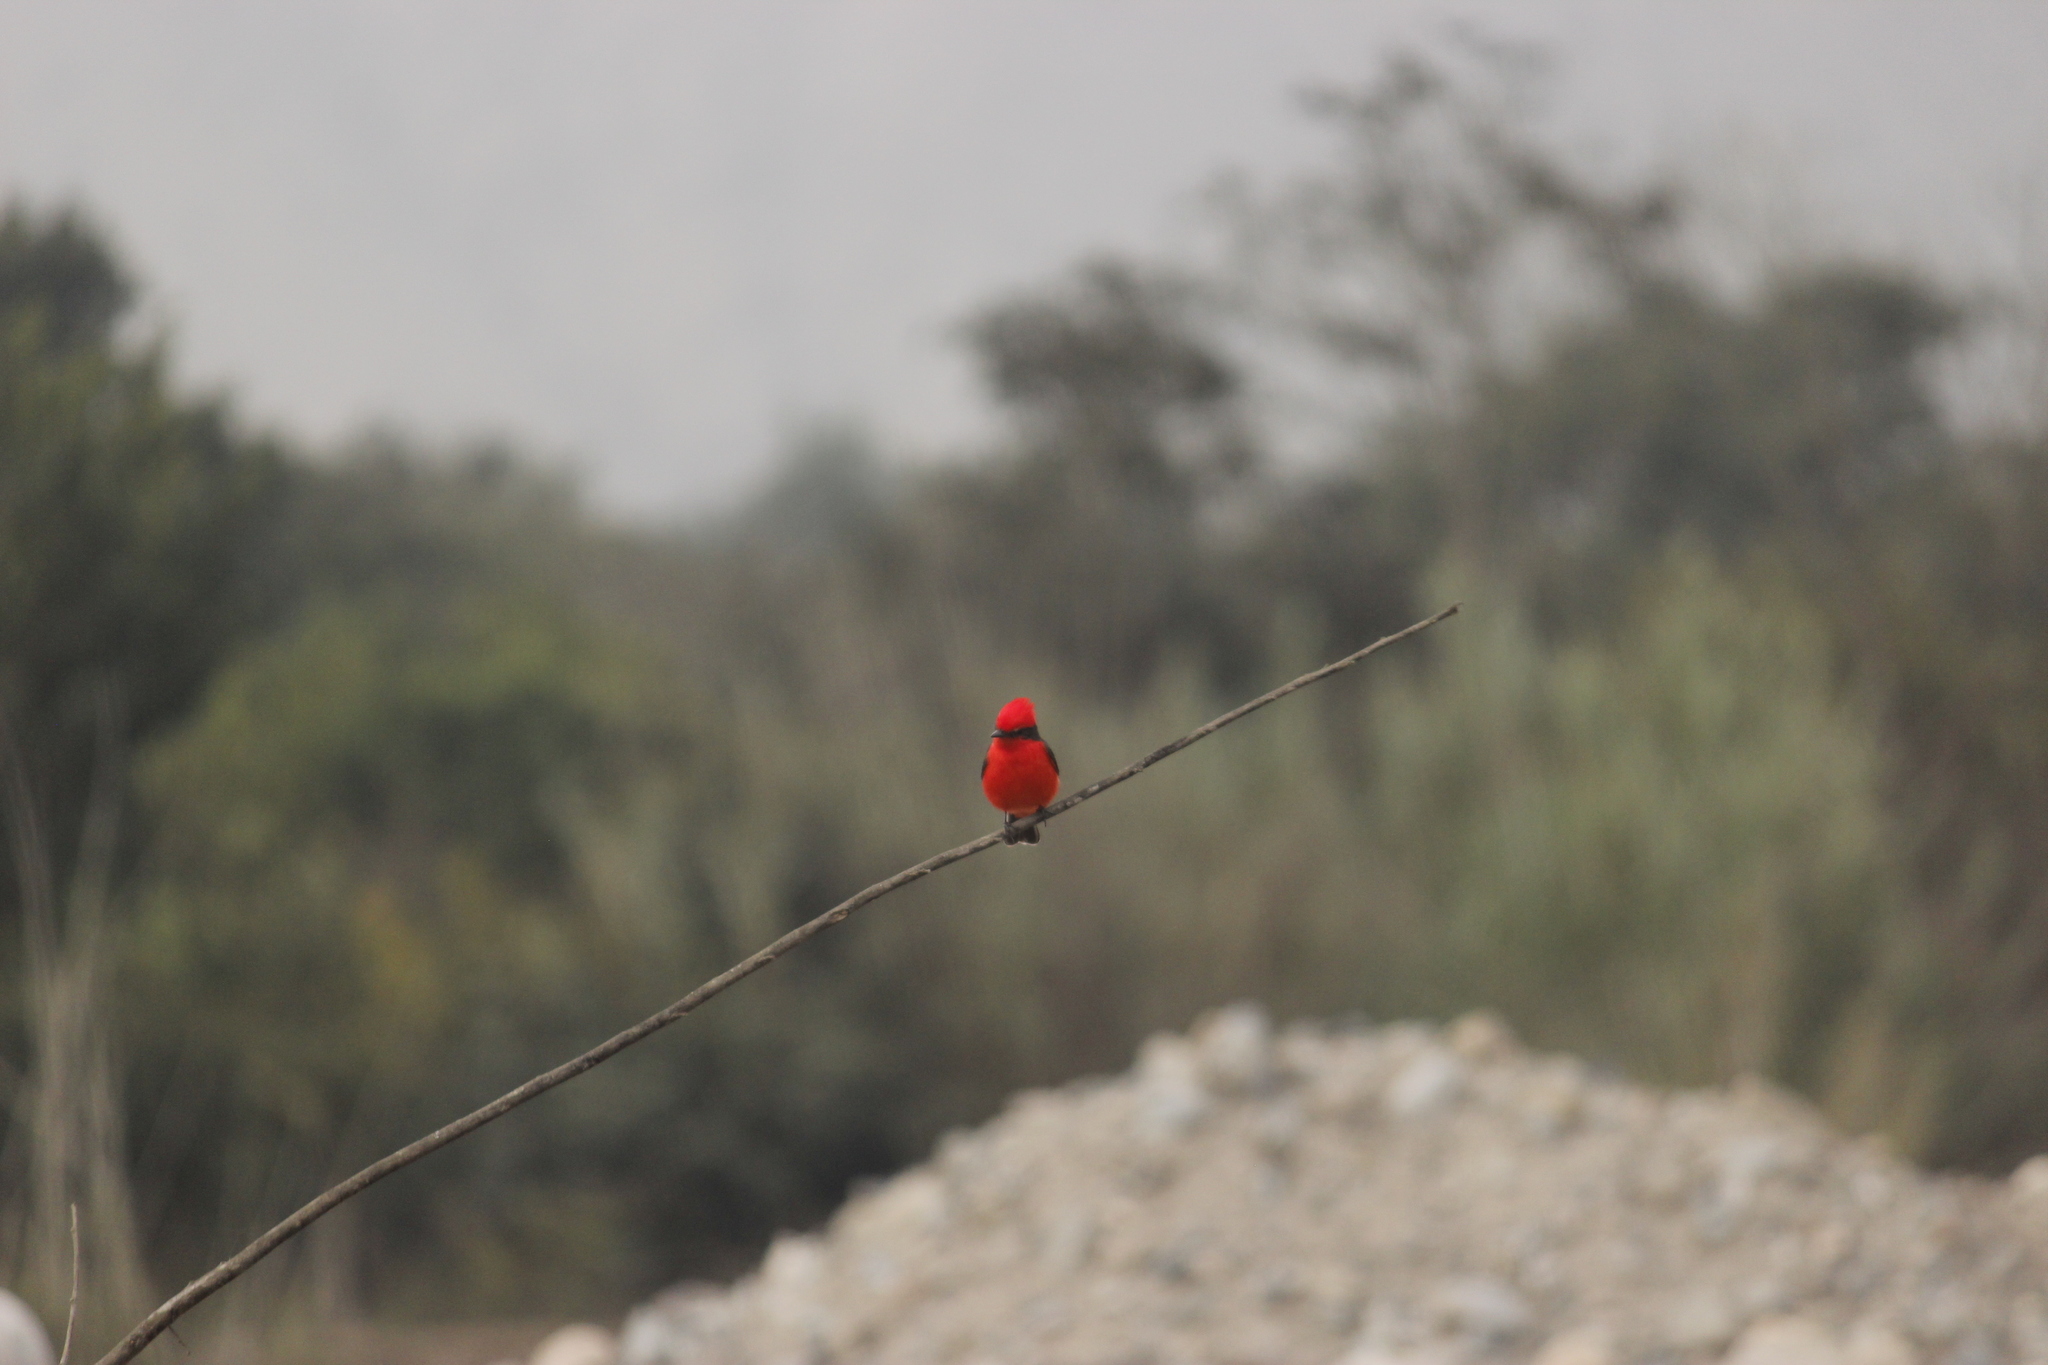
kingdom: Animalia
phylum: Chordata
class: Aves
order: Passeriformes
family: Tyrannidae
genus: Pyrocephalus
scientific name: Pyrocephalus rubinus
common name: Vermilion flycatcher
